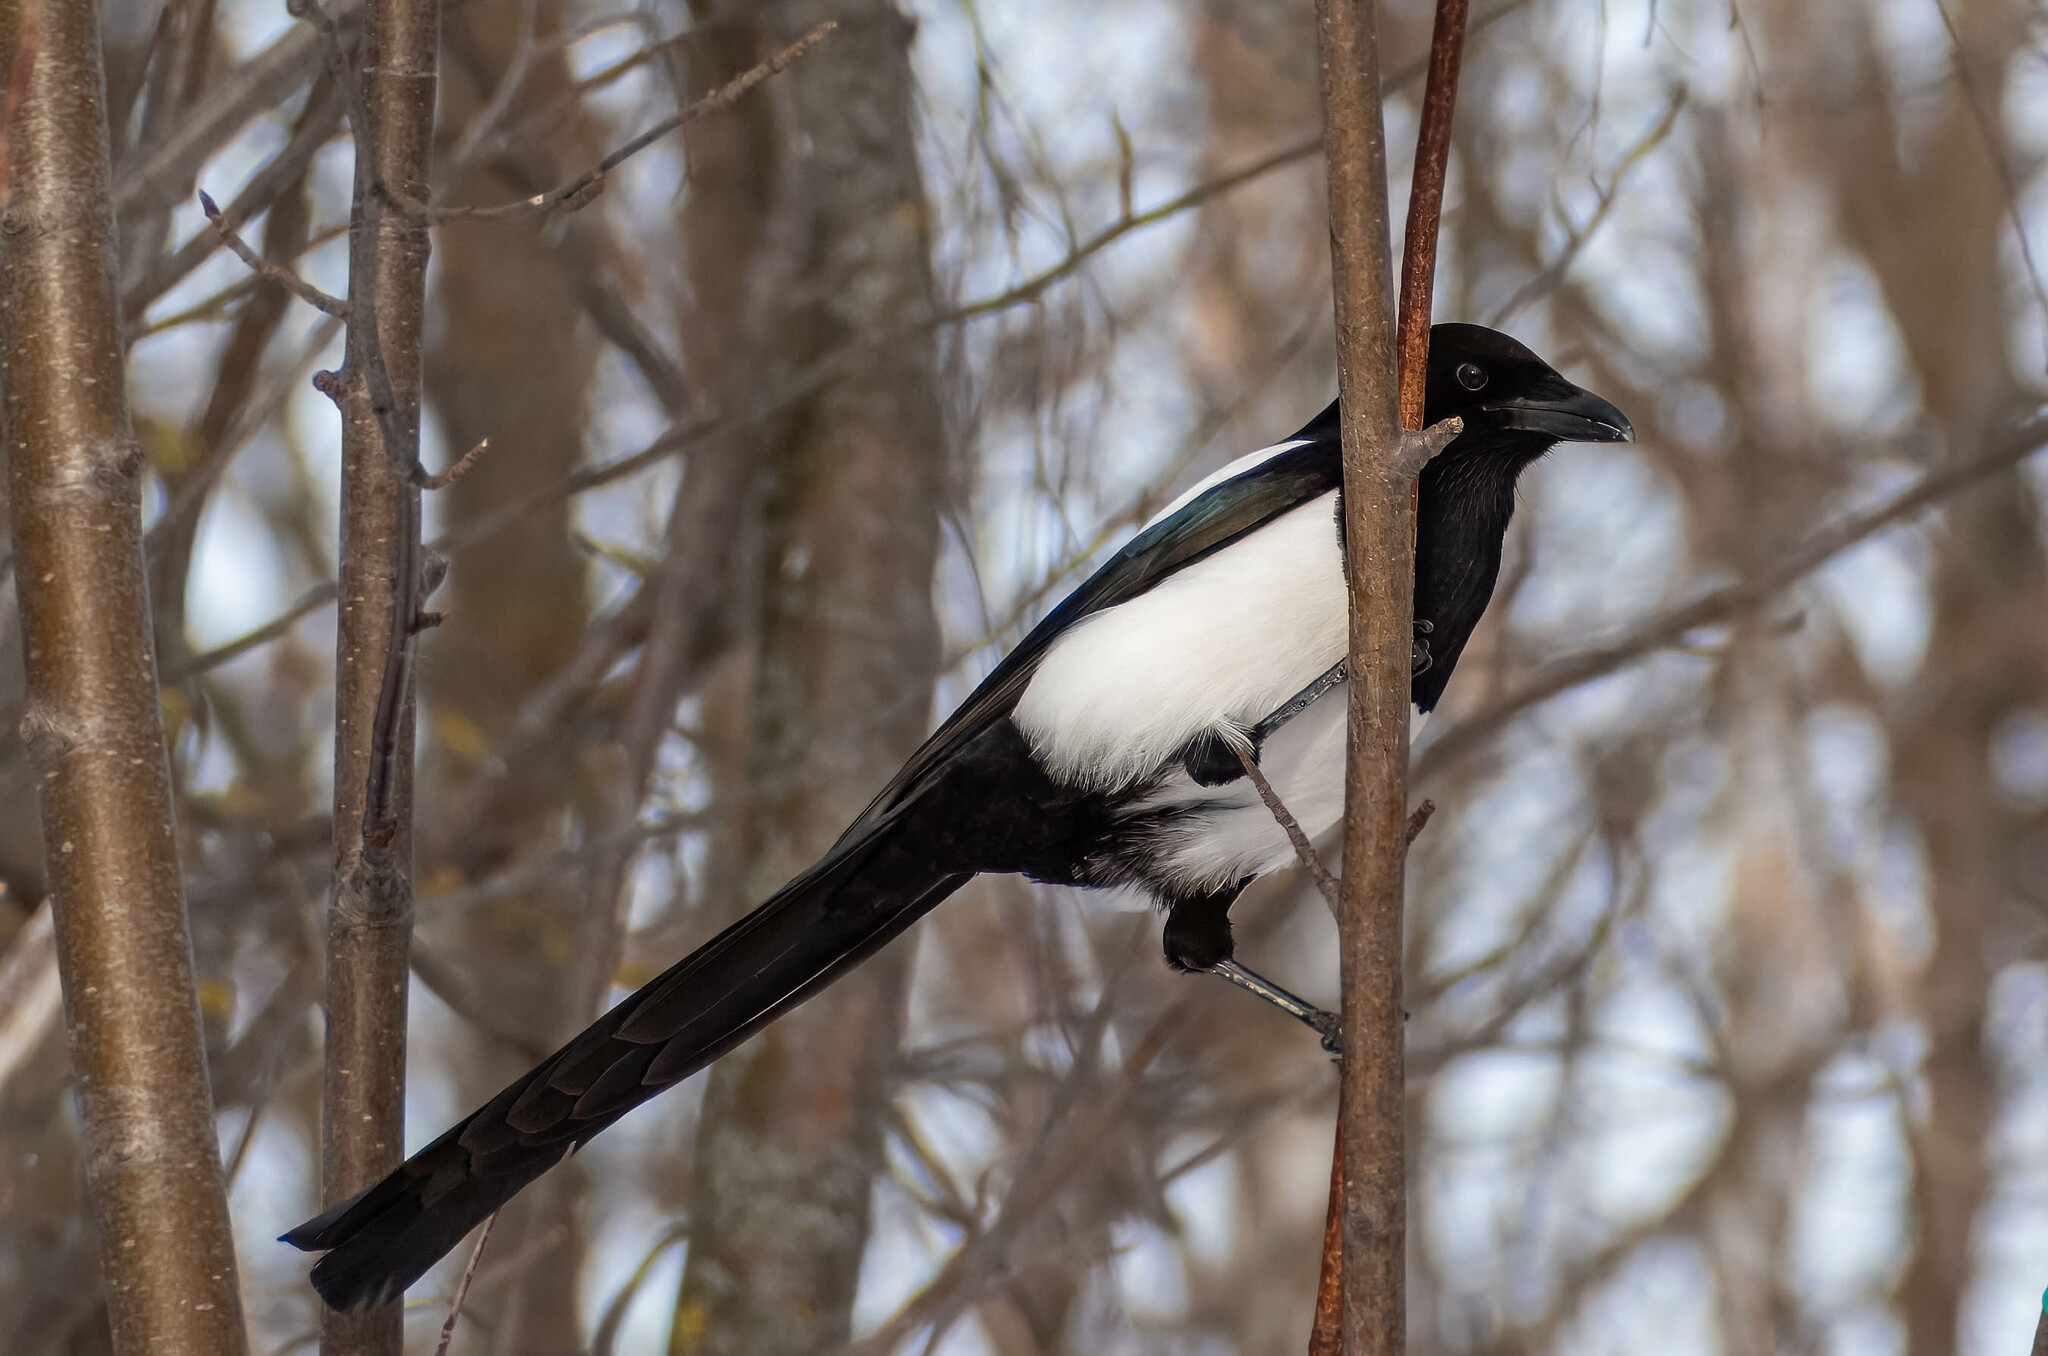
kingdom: Animalia
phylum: Chordata
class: Aves
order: Passeriformes
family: Corvidae
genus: Pica
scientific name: Pica pica
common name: Eurasian magpie
